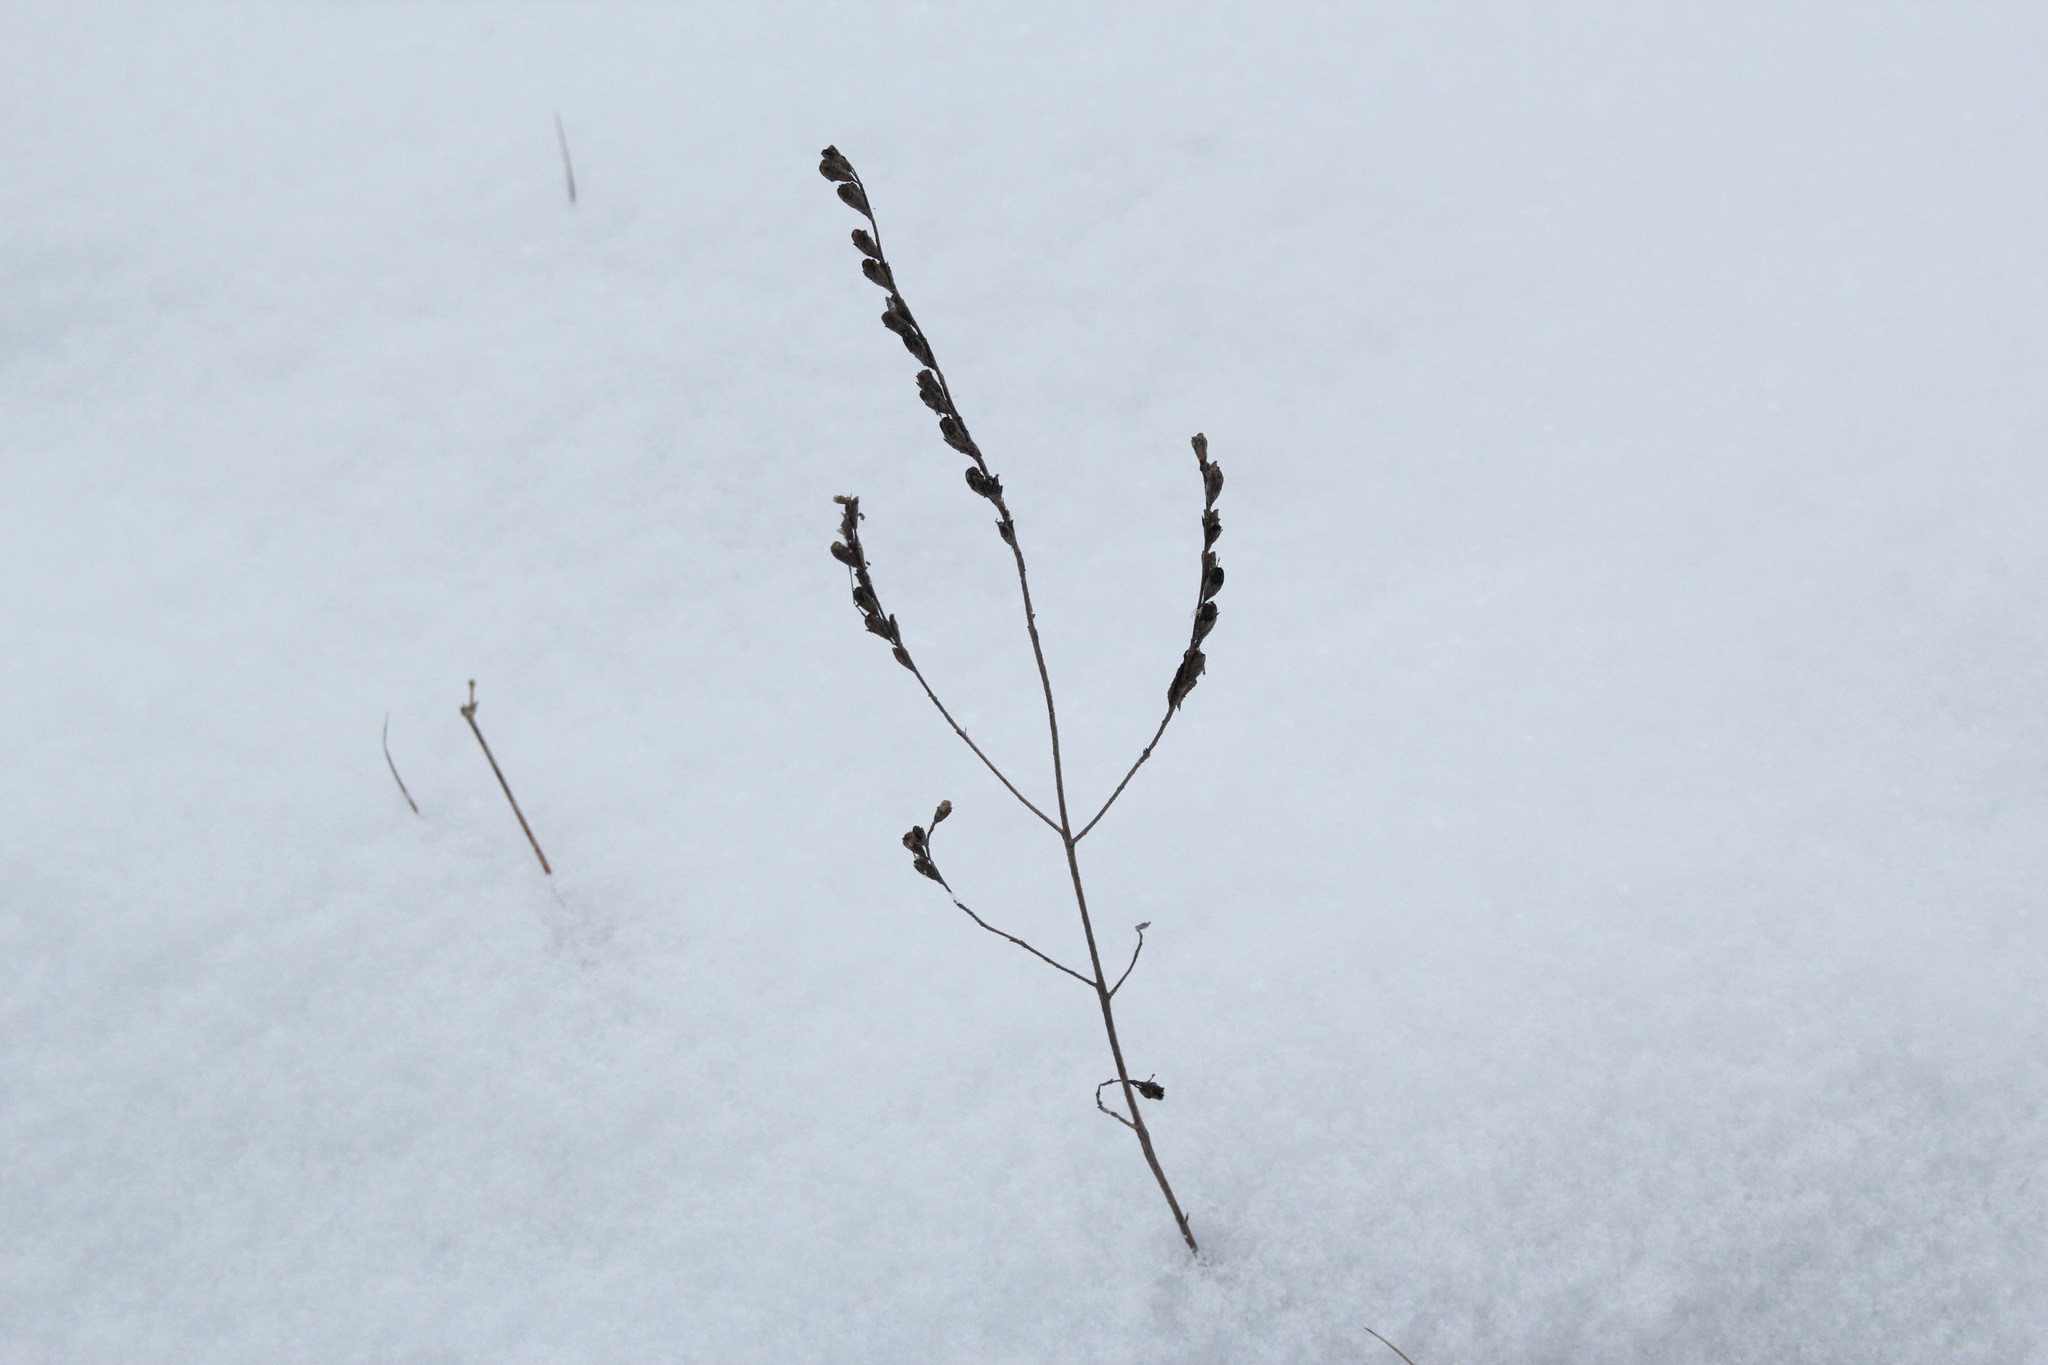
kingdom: Plantae
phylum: Tracheophyta
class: Magnoliopsida
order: Lamiales
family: Orobanchaceae
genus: Odontites
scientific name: Odontites vulgaris
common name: Broomrape
